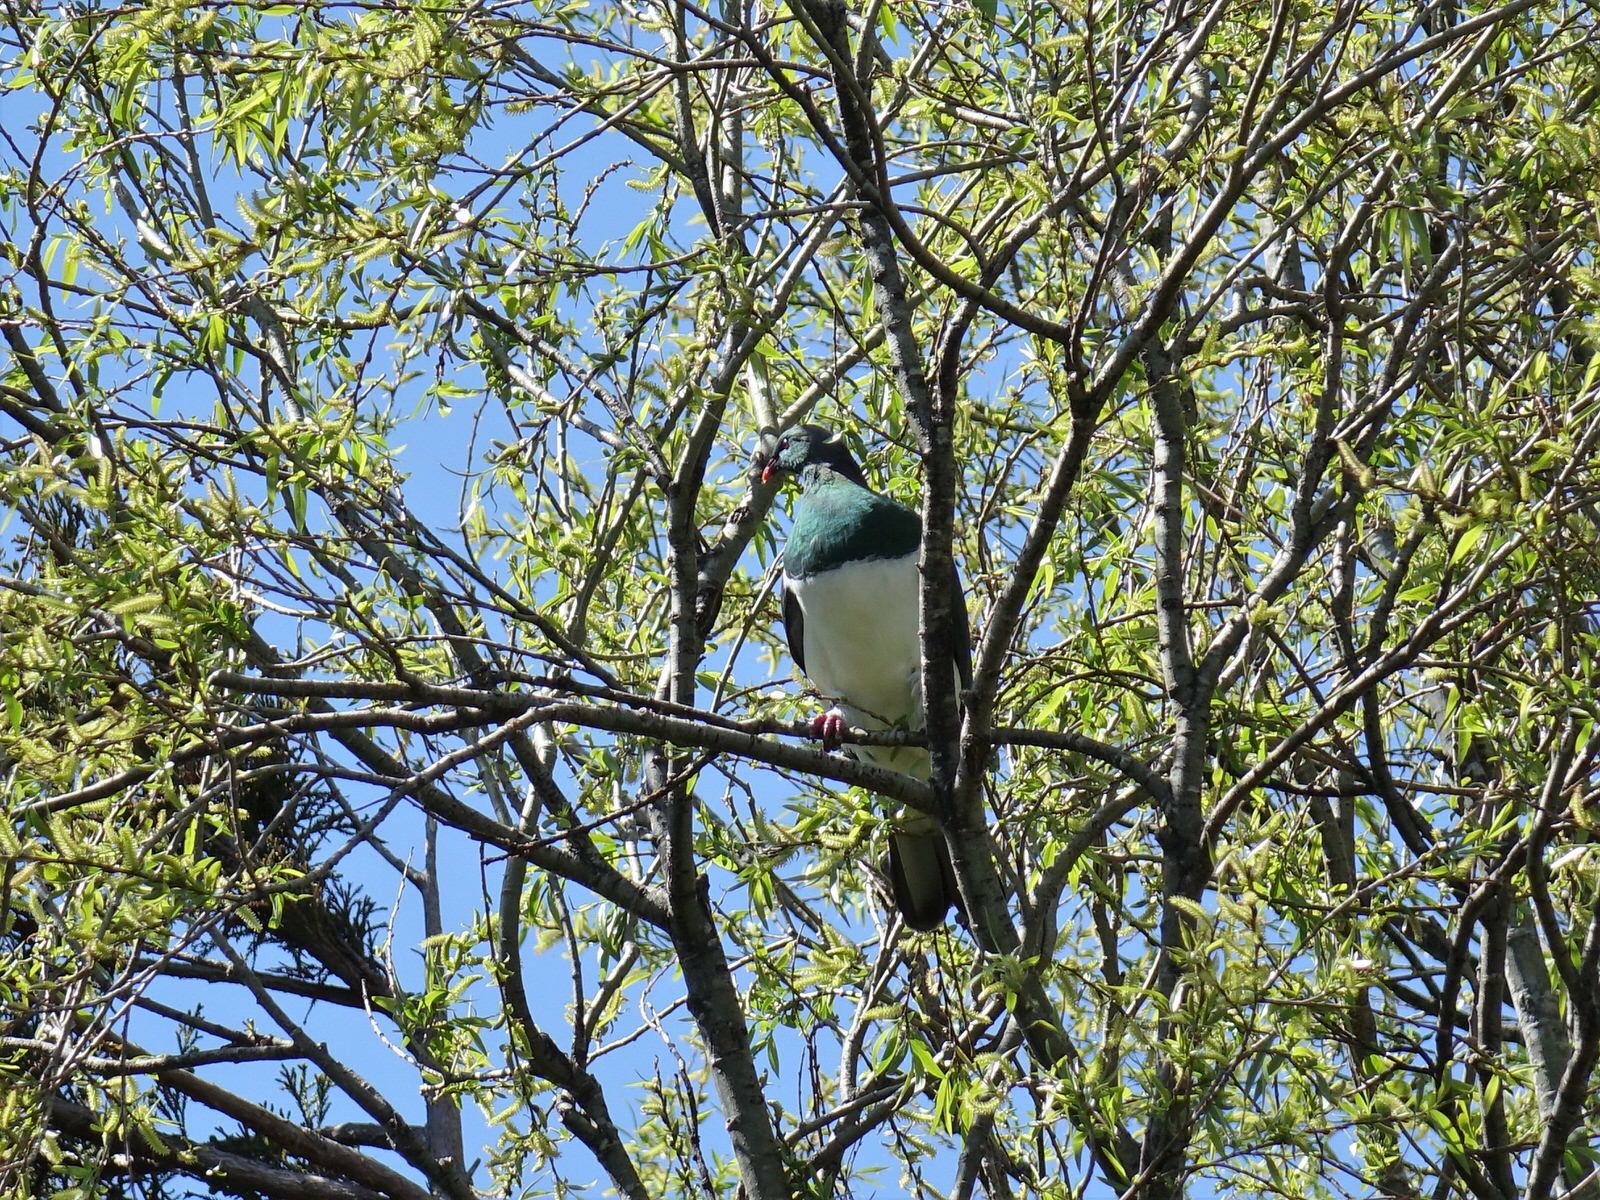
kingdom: Animalia
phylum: Chordata
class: Aves
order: Columbiformes
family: Columbidae
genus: Hemiphaga
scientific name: Hemiphaga novaeseelandiae
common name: New zealand pigeon
